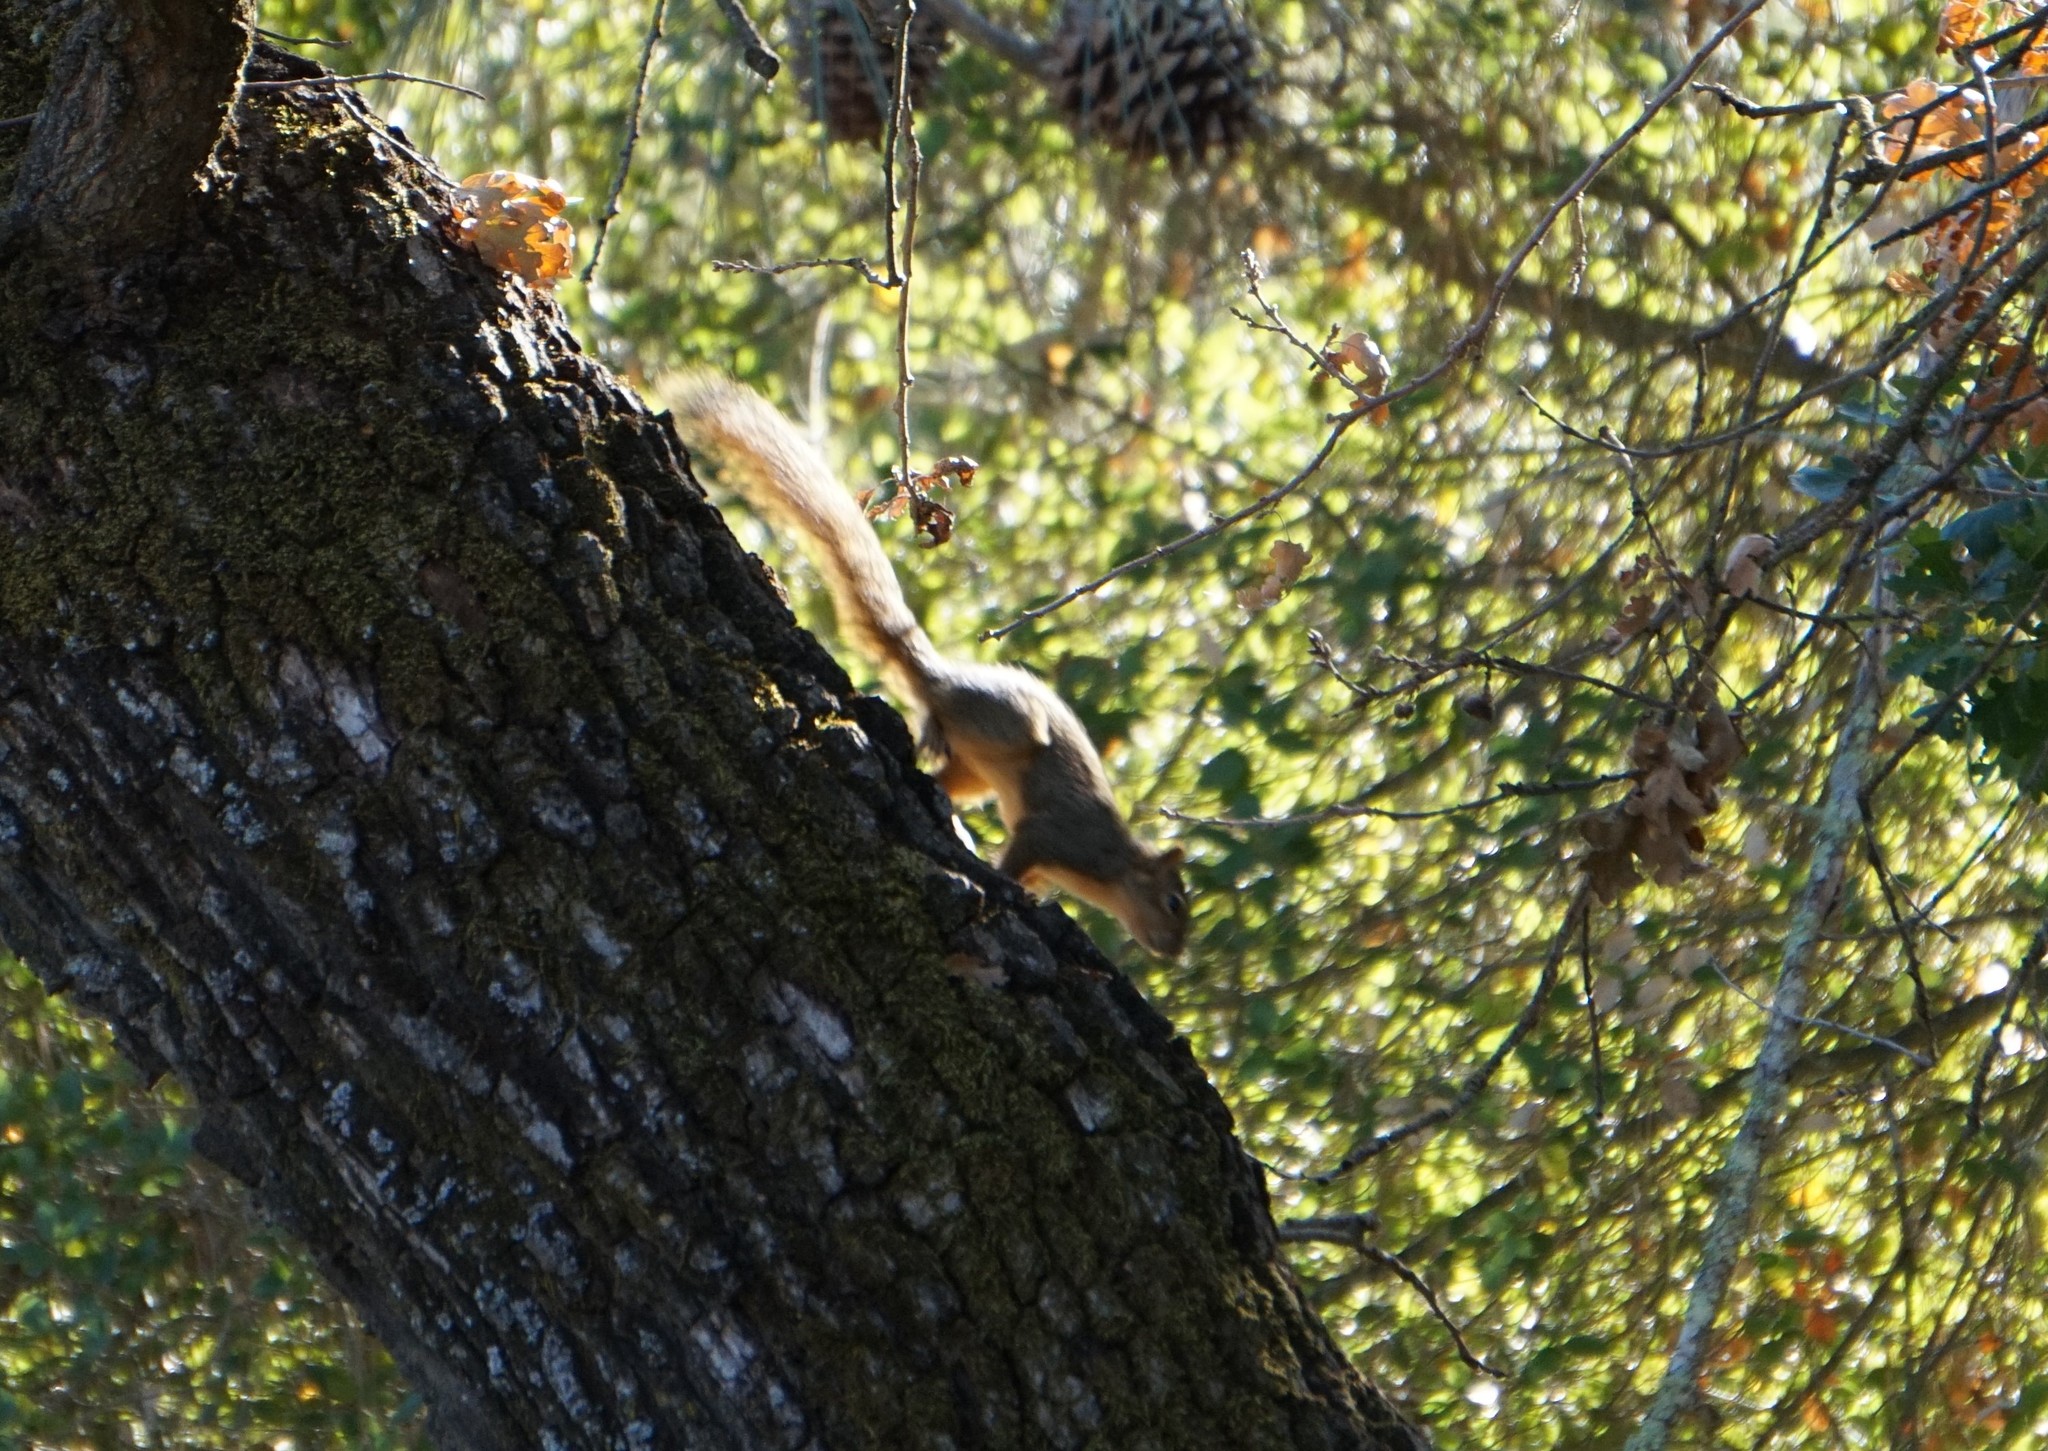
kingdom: Animalia
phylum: Chordata
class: Mammalia
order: Rodentia
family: Sciuridae
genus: Sciurus
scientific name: Sciurus niger
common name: Fox squirrel
